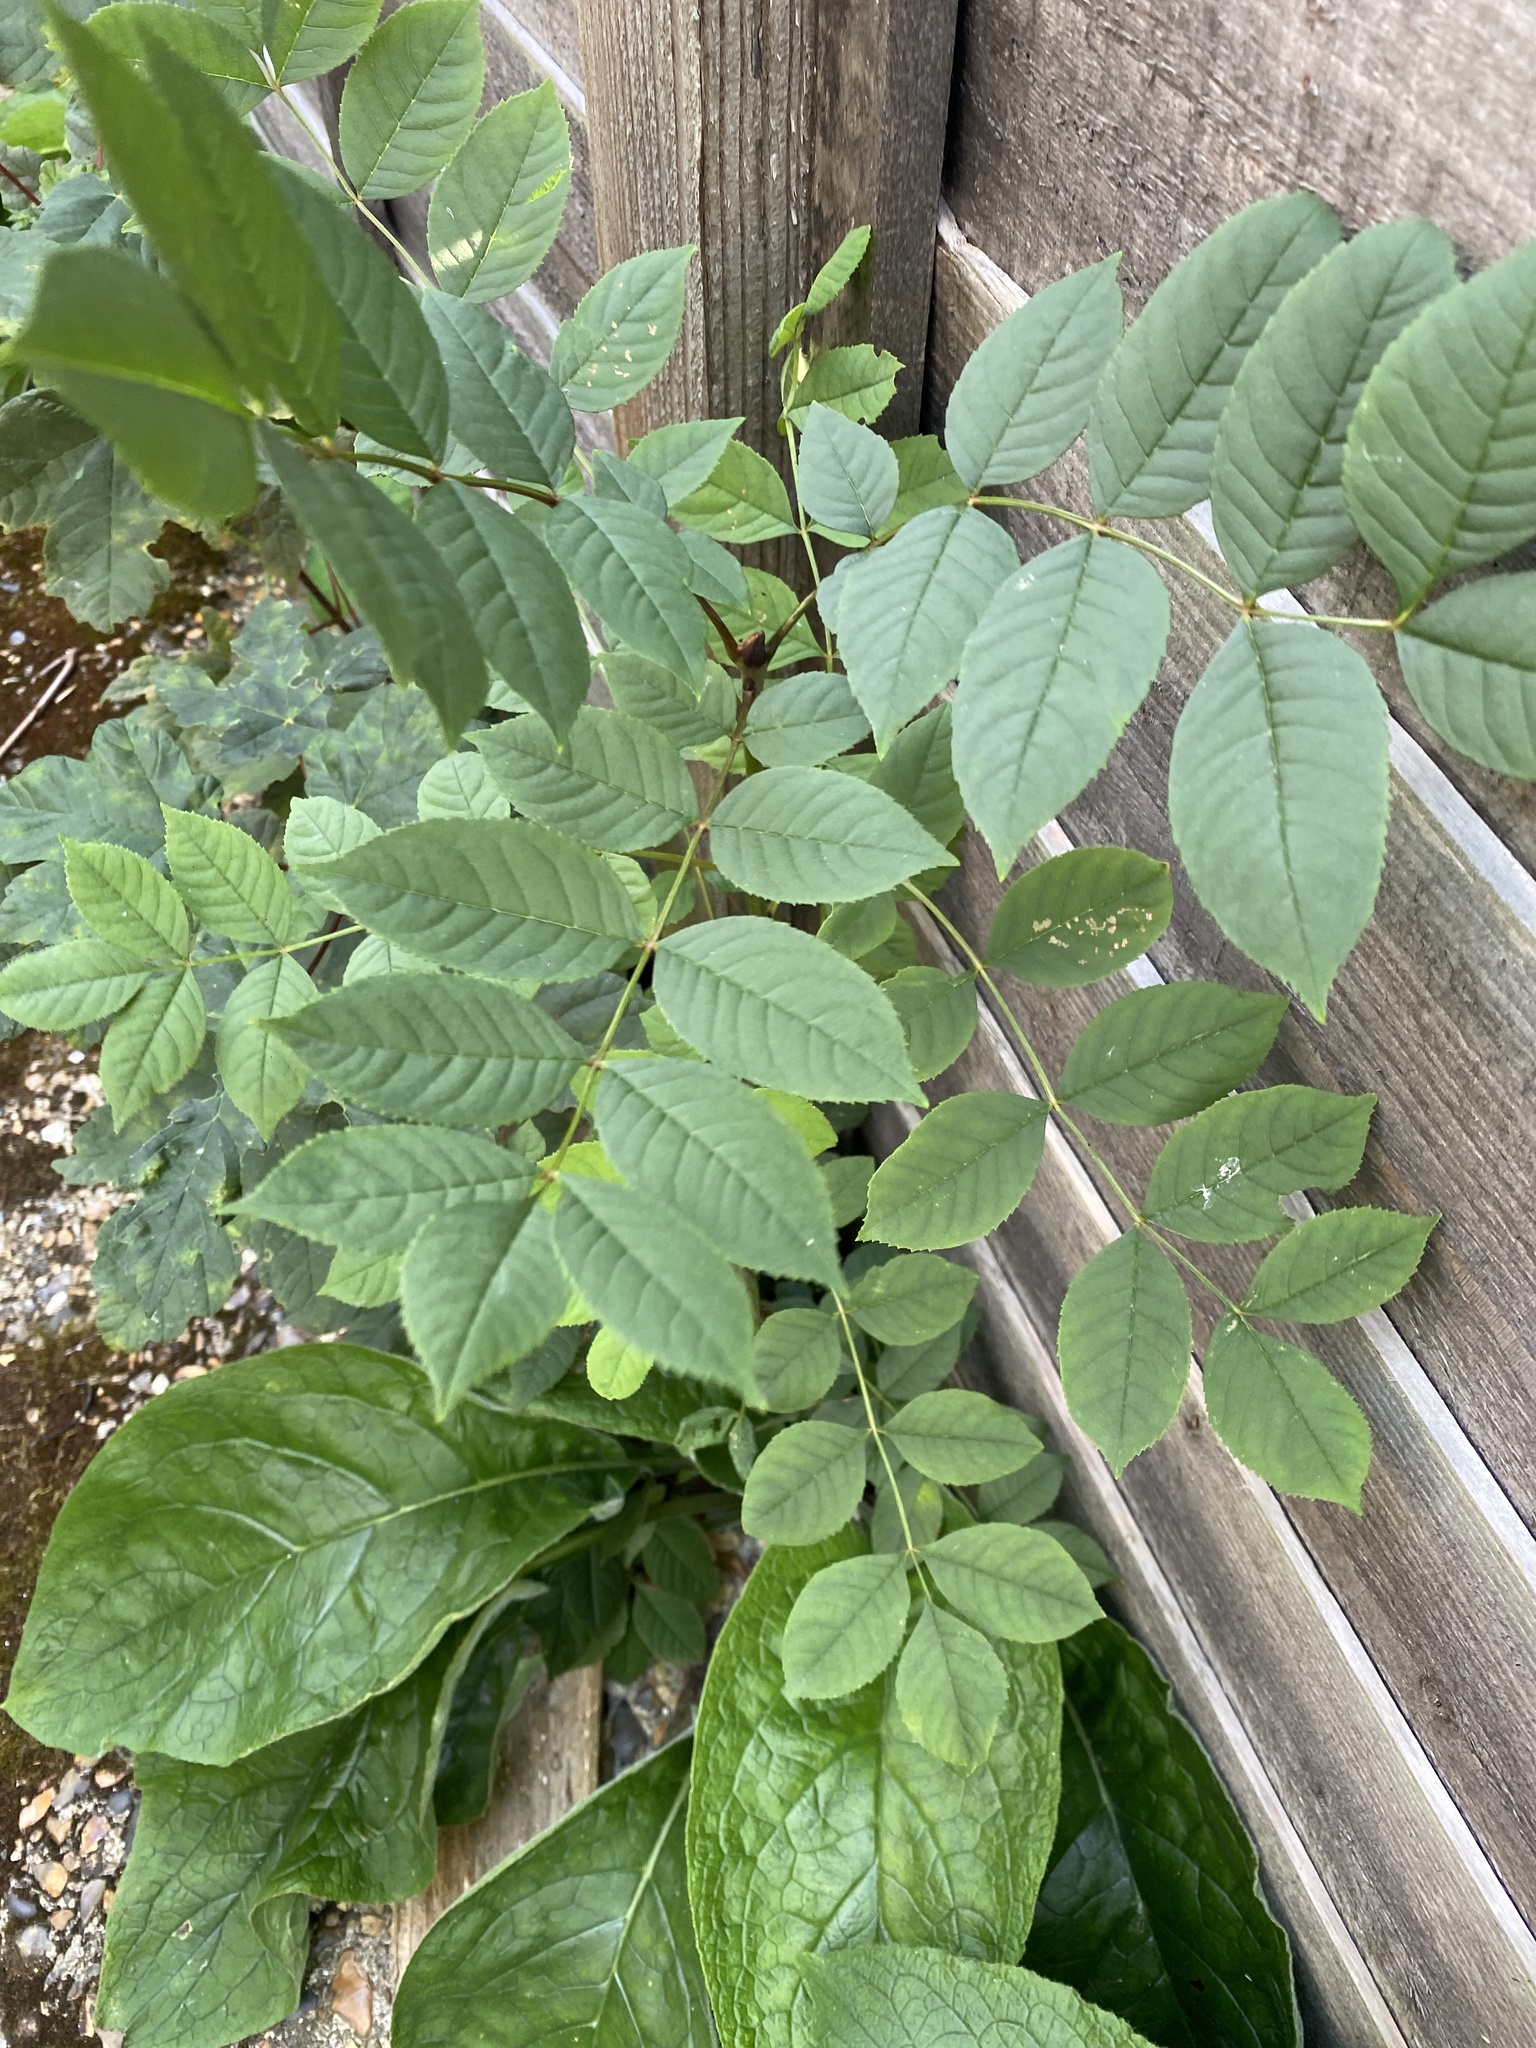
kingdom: Plantae
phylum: Tracheophyta
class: Magnoliopsida
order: Lamiales
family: Oleaceae
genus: Fraxinus
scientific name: Fraxinus excelsior
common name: European ash
